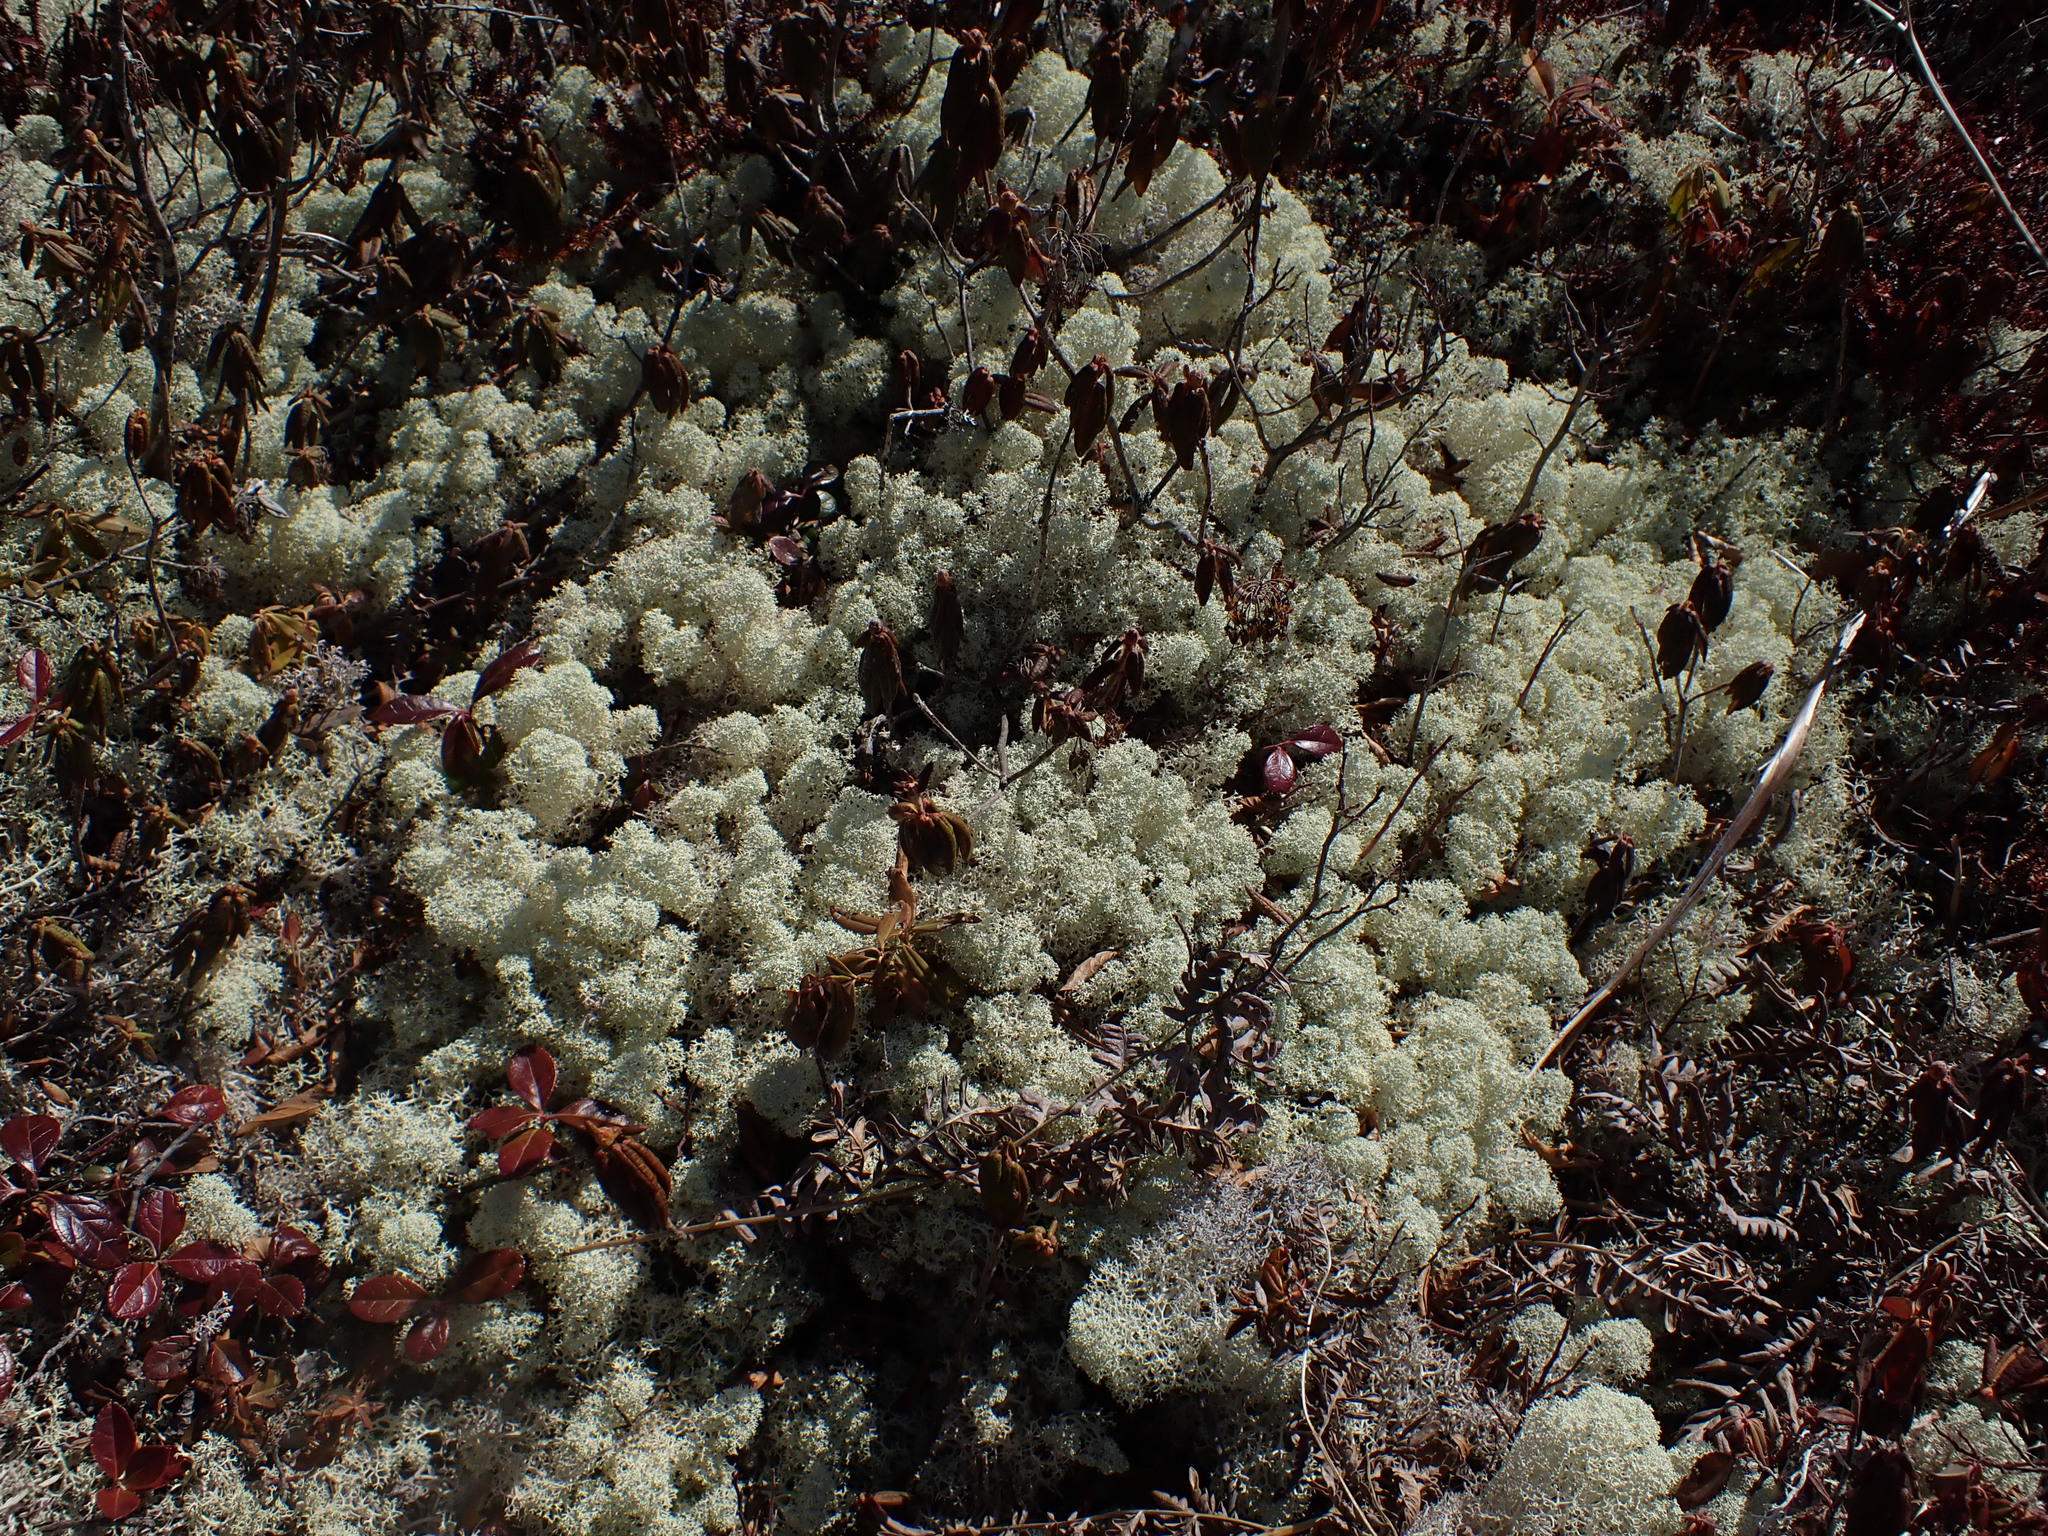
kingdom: Fungi
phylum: Ascomycota
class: Lecanoromycetes
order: Lecanorales
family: Cladoniaceae
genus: Cladonia
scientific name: Cladonia stellaris
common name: Star-tipped reindeer lichen
